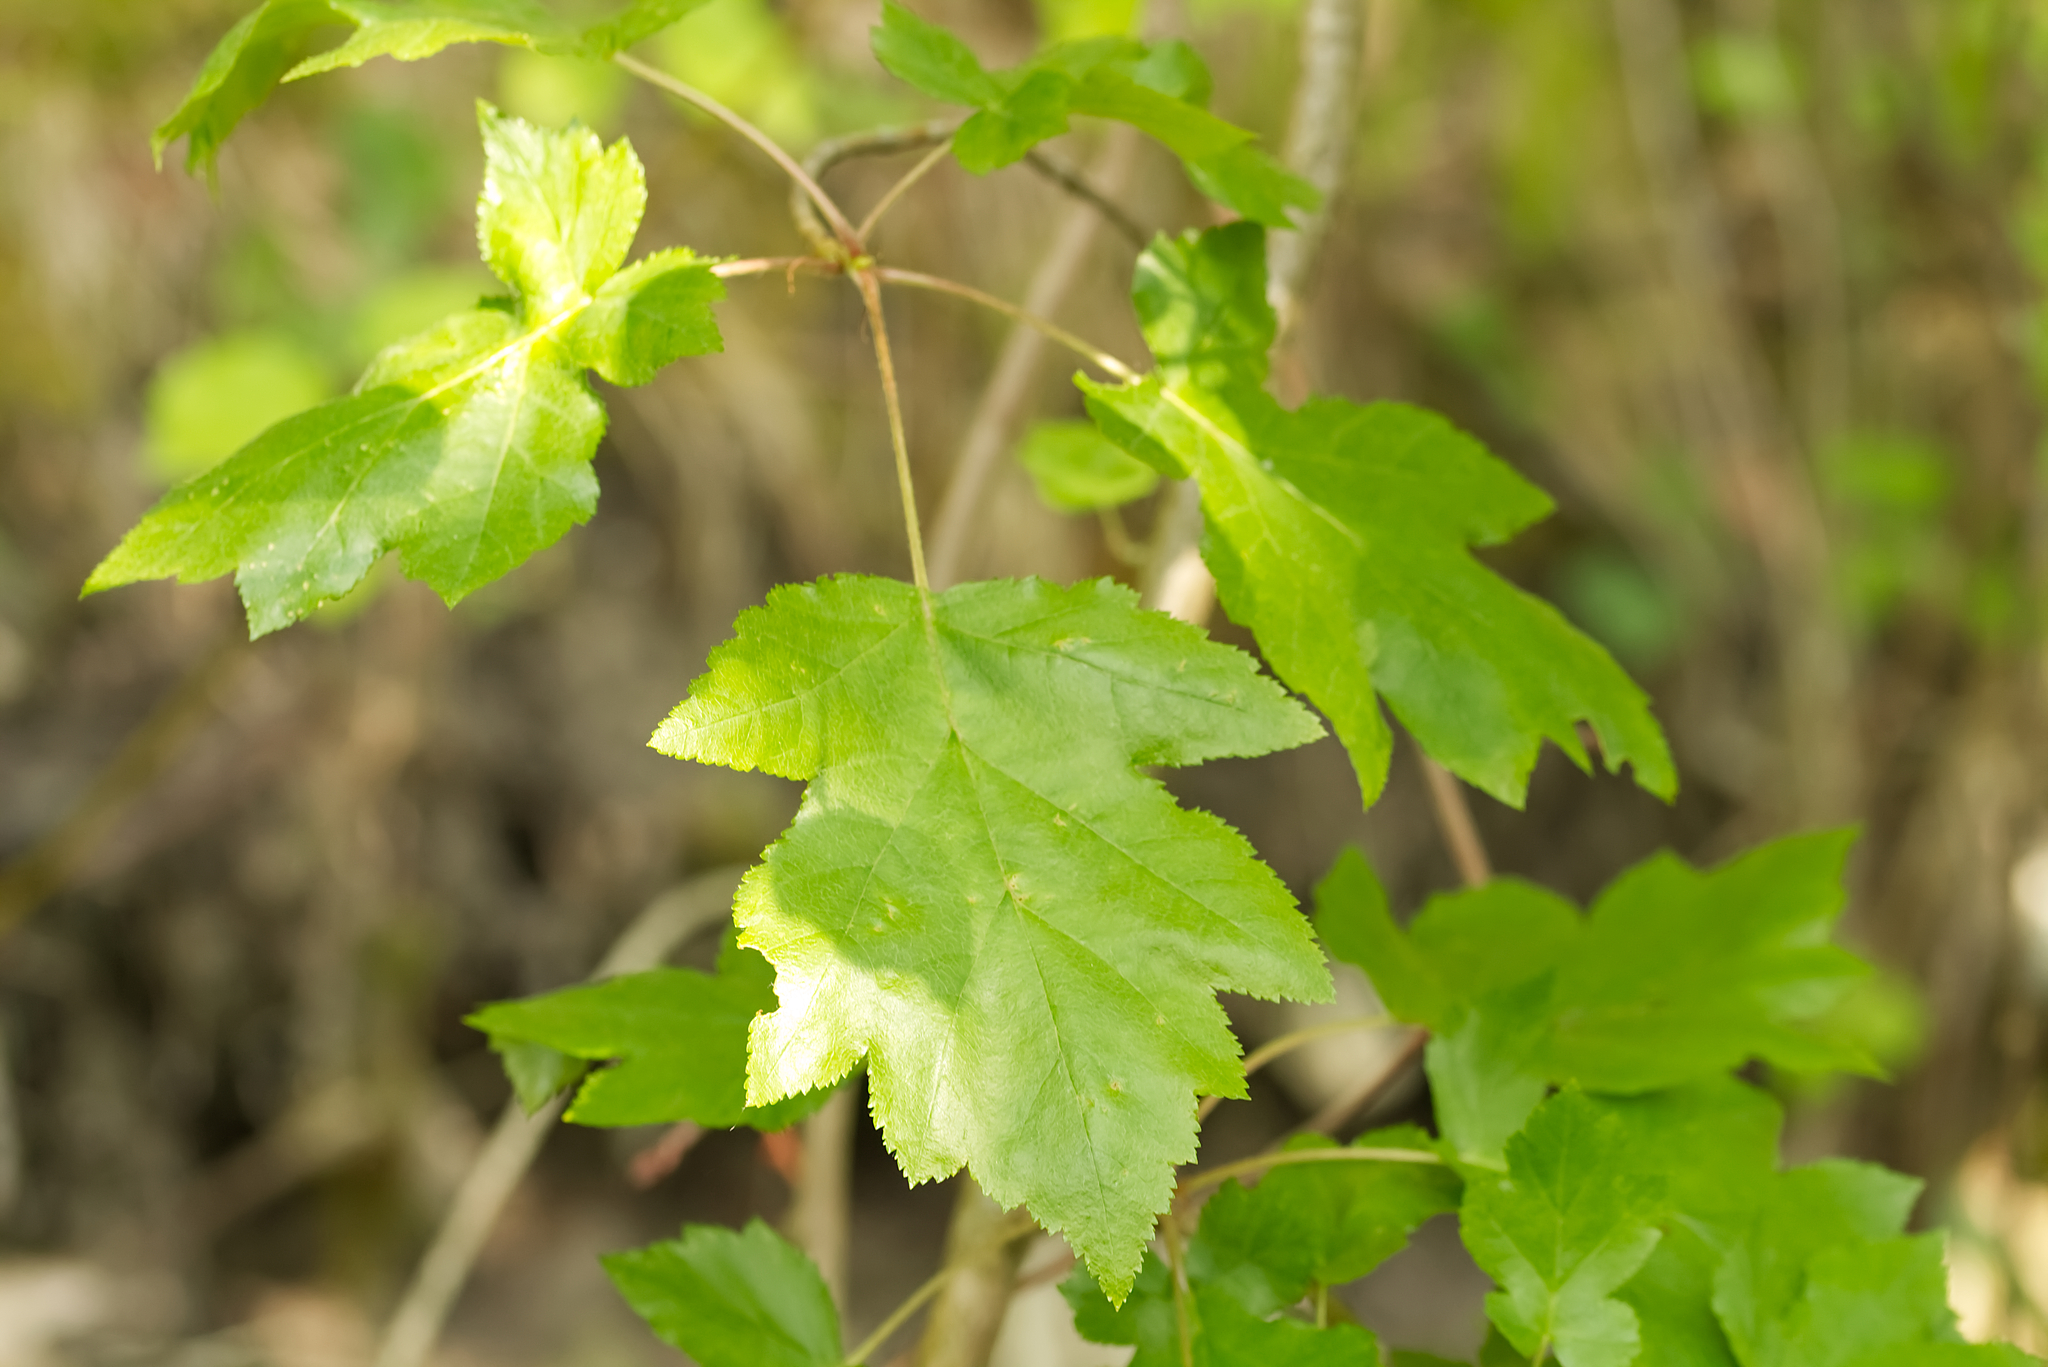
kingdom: Plantae
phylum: Tracheophyta
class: Magnoliopsida
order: Rosales
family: Rosaceae
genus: Torminalis
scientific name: Torminalis glaberrima
